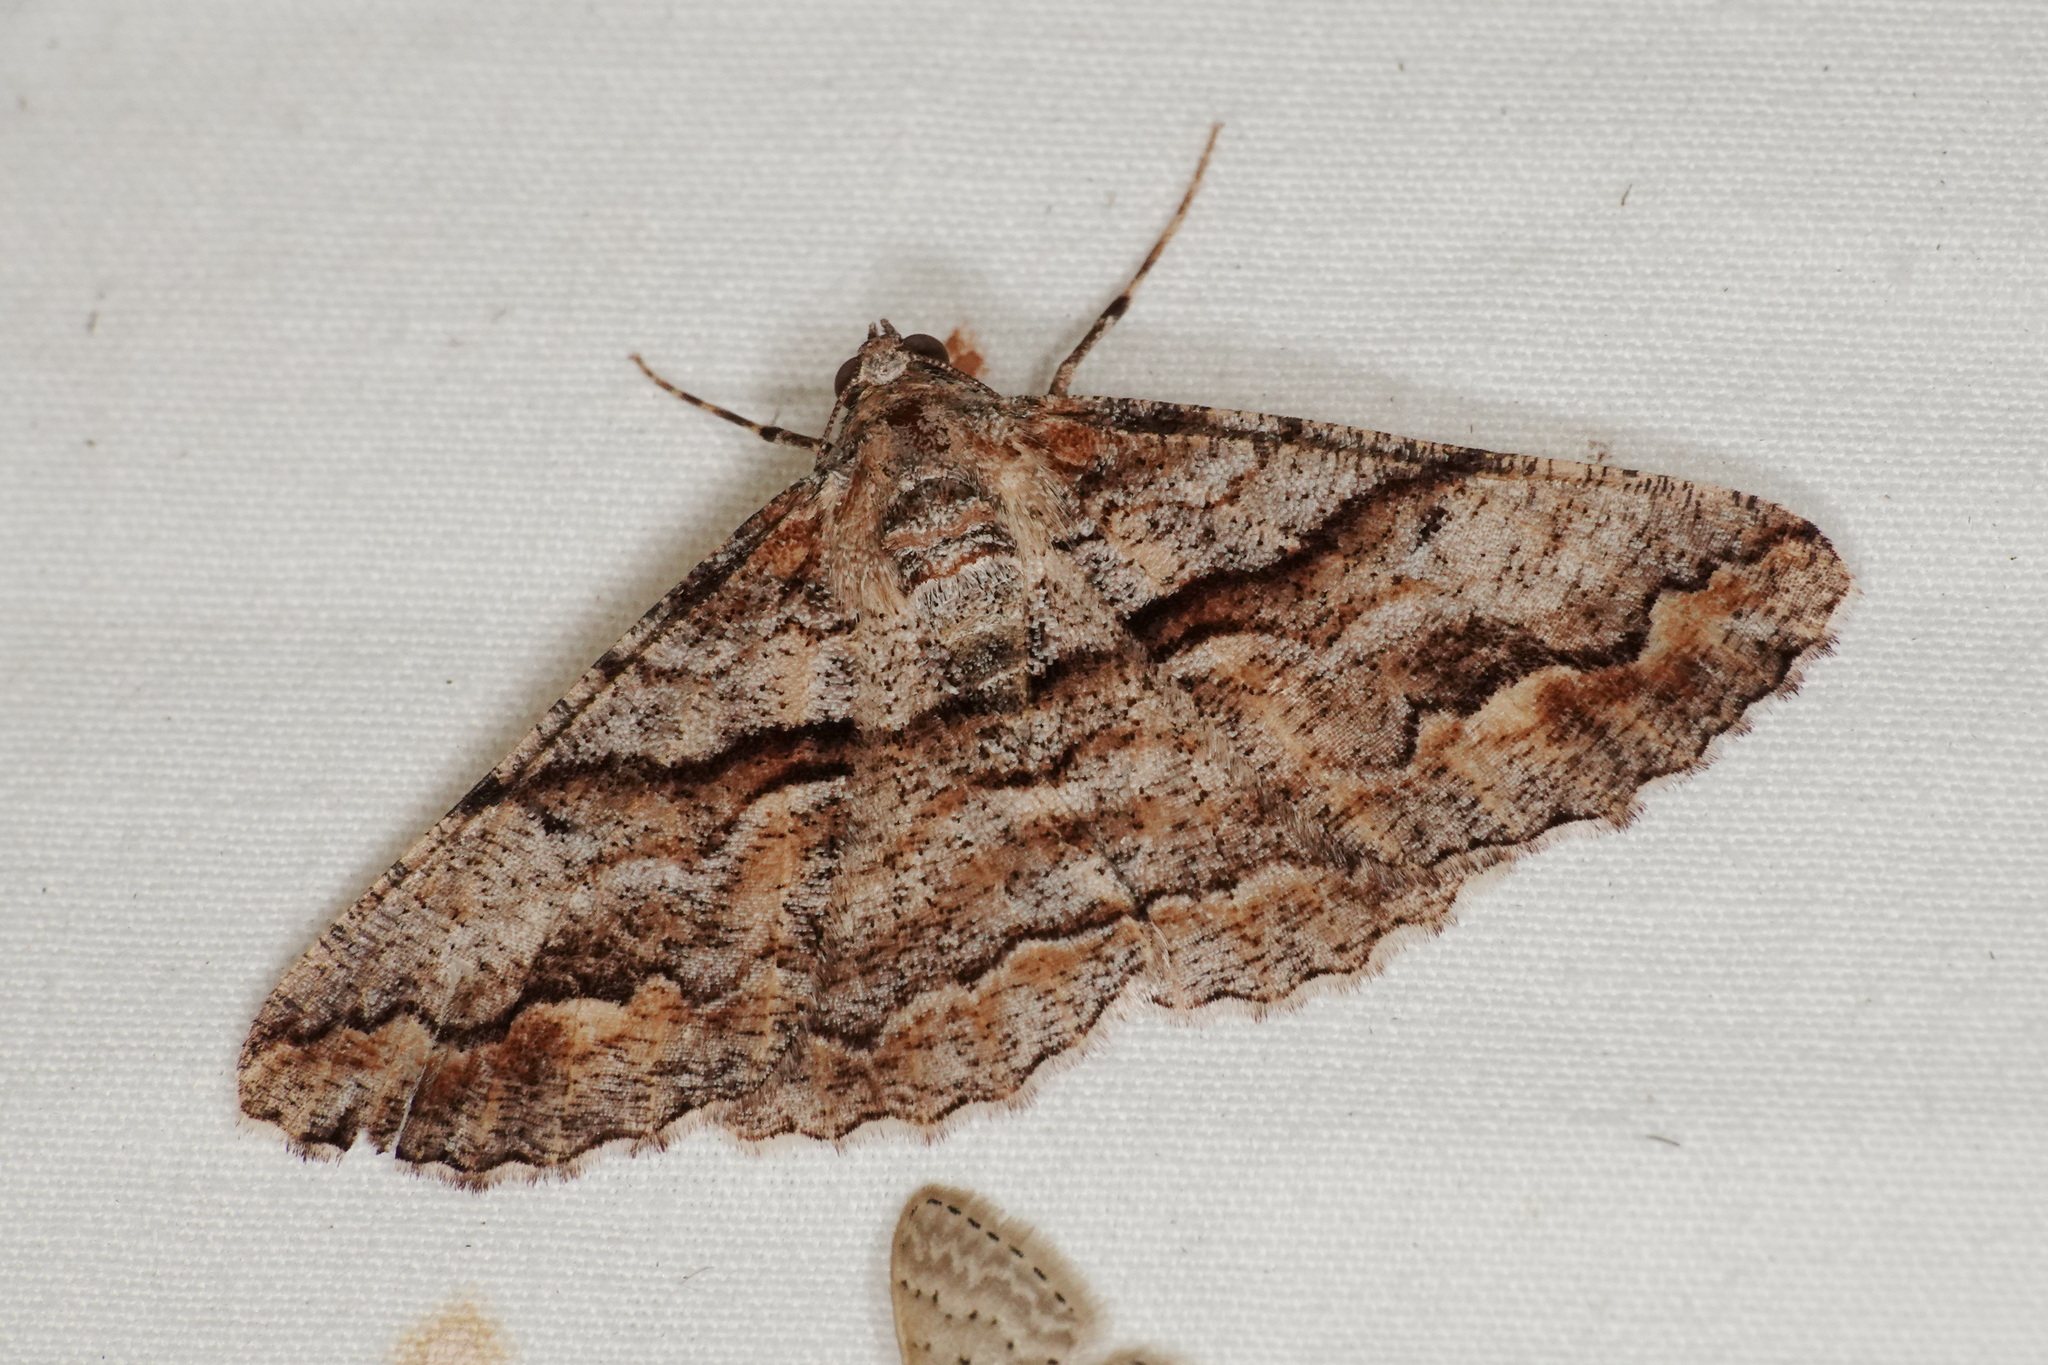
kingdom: Animalia
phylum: Arthropoda
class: Insecta
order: Lepidoptera
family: Geometridae
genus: Gastrinodes
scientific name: Gastrinodes bitaeniaria
